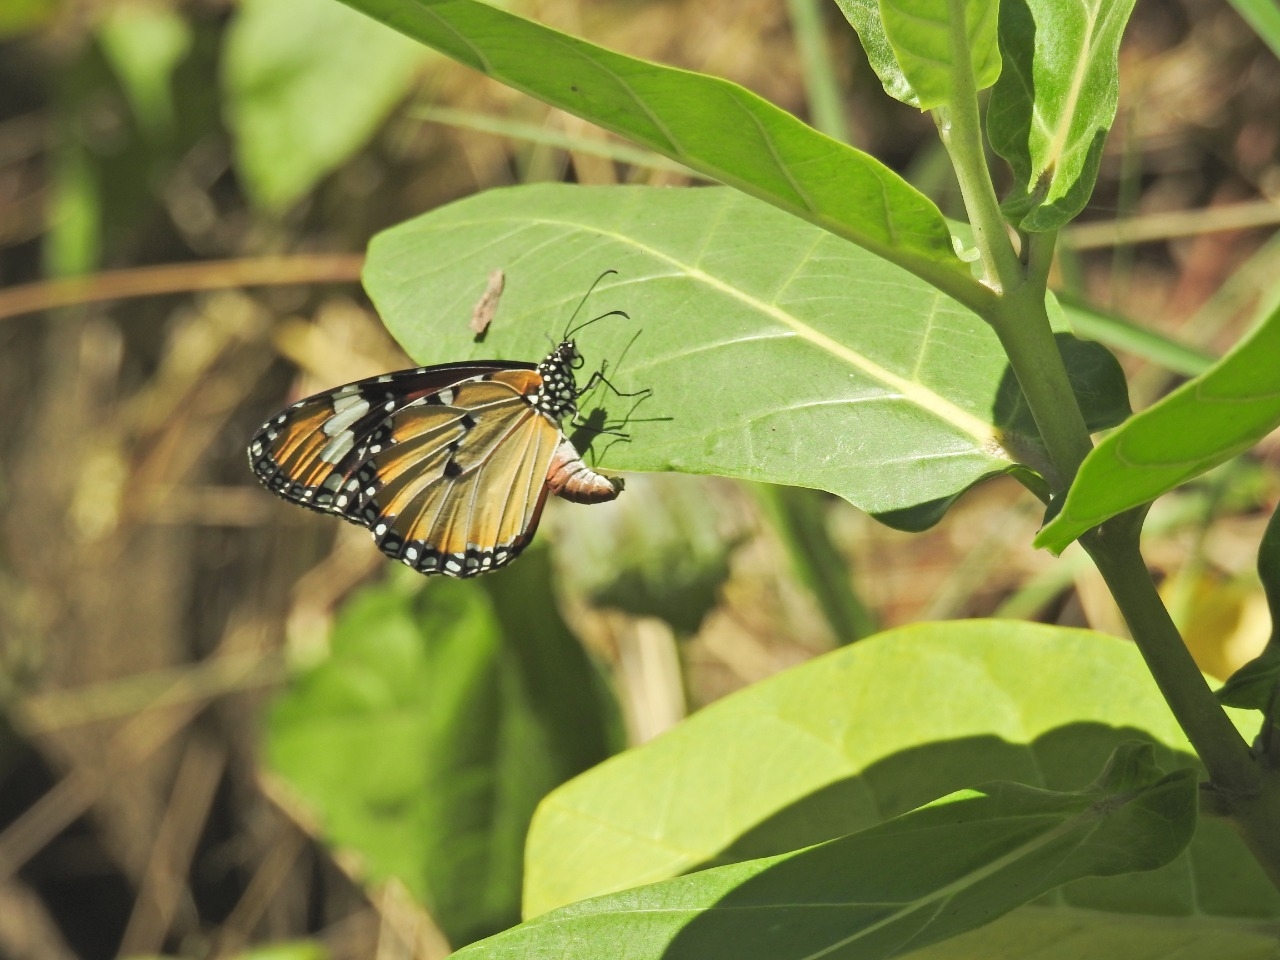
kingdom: Animalia
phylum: Arthropoda
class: Insecta
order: Lepidoptera
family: Nymphalidae
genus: Danaus
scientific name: Danaus chrysippus
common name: Plain tiger
